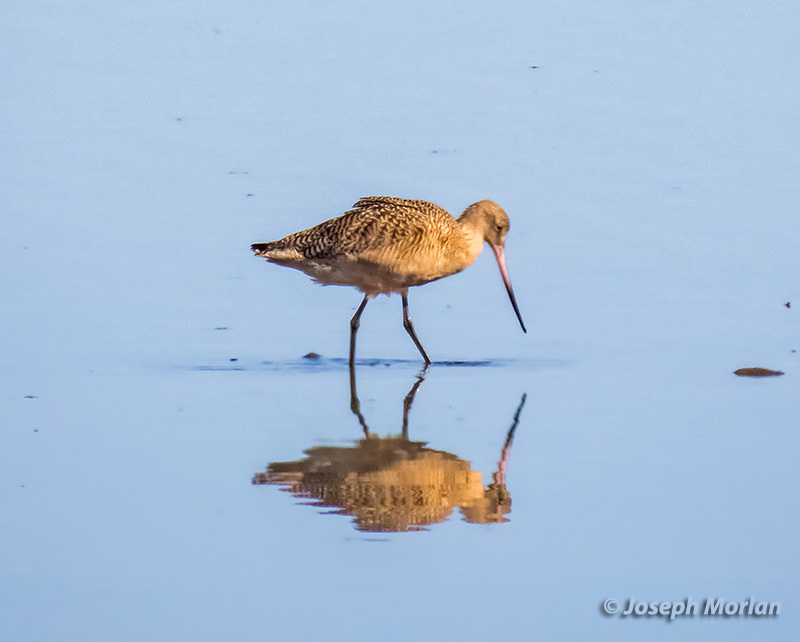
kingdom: Animalia
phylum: Chordata
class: Aves
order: Charadriiformes
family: Scolopacidae
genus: Limosa
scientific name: Limosa fedoa
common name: Marbled godwit
